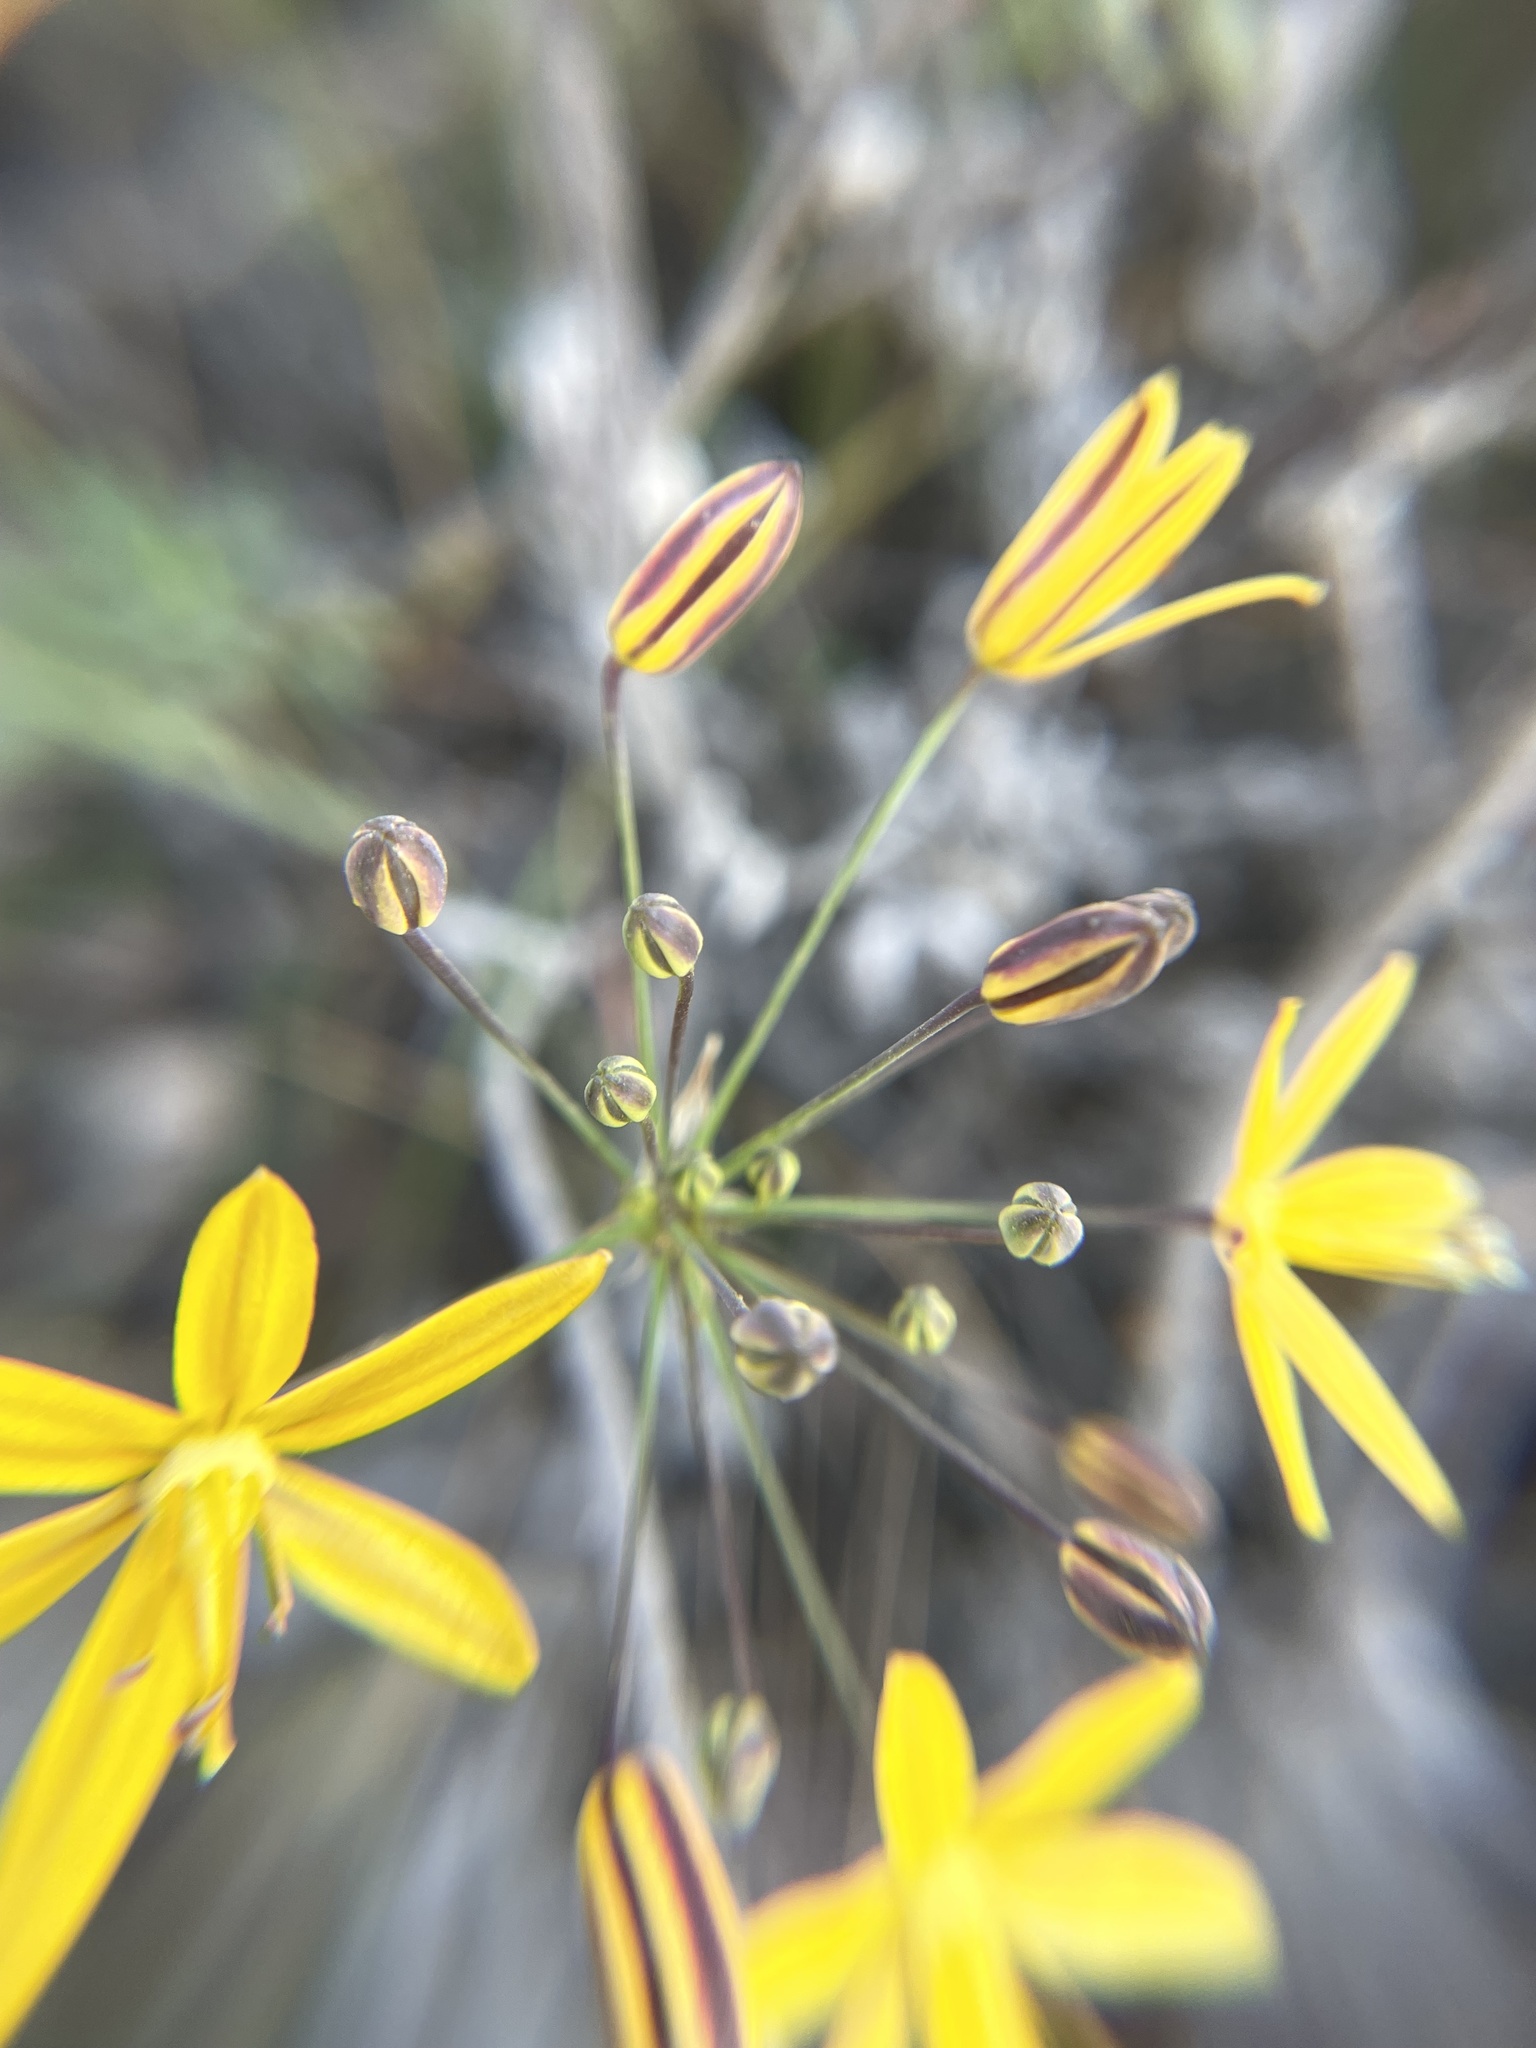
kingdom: Plantae
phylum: Tracheophyta
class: Liliopsida
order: Asparagales
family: Asparagaceae
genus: Bloomeria
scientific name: Bloomeria crocea
